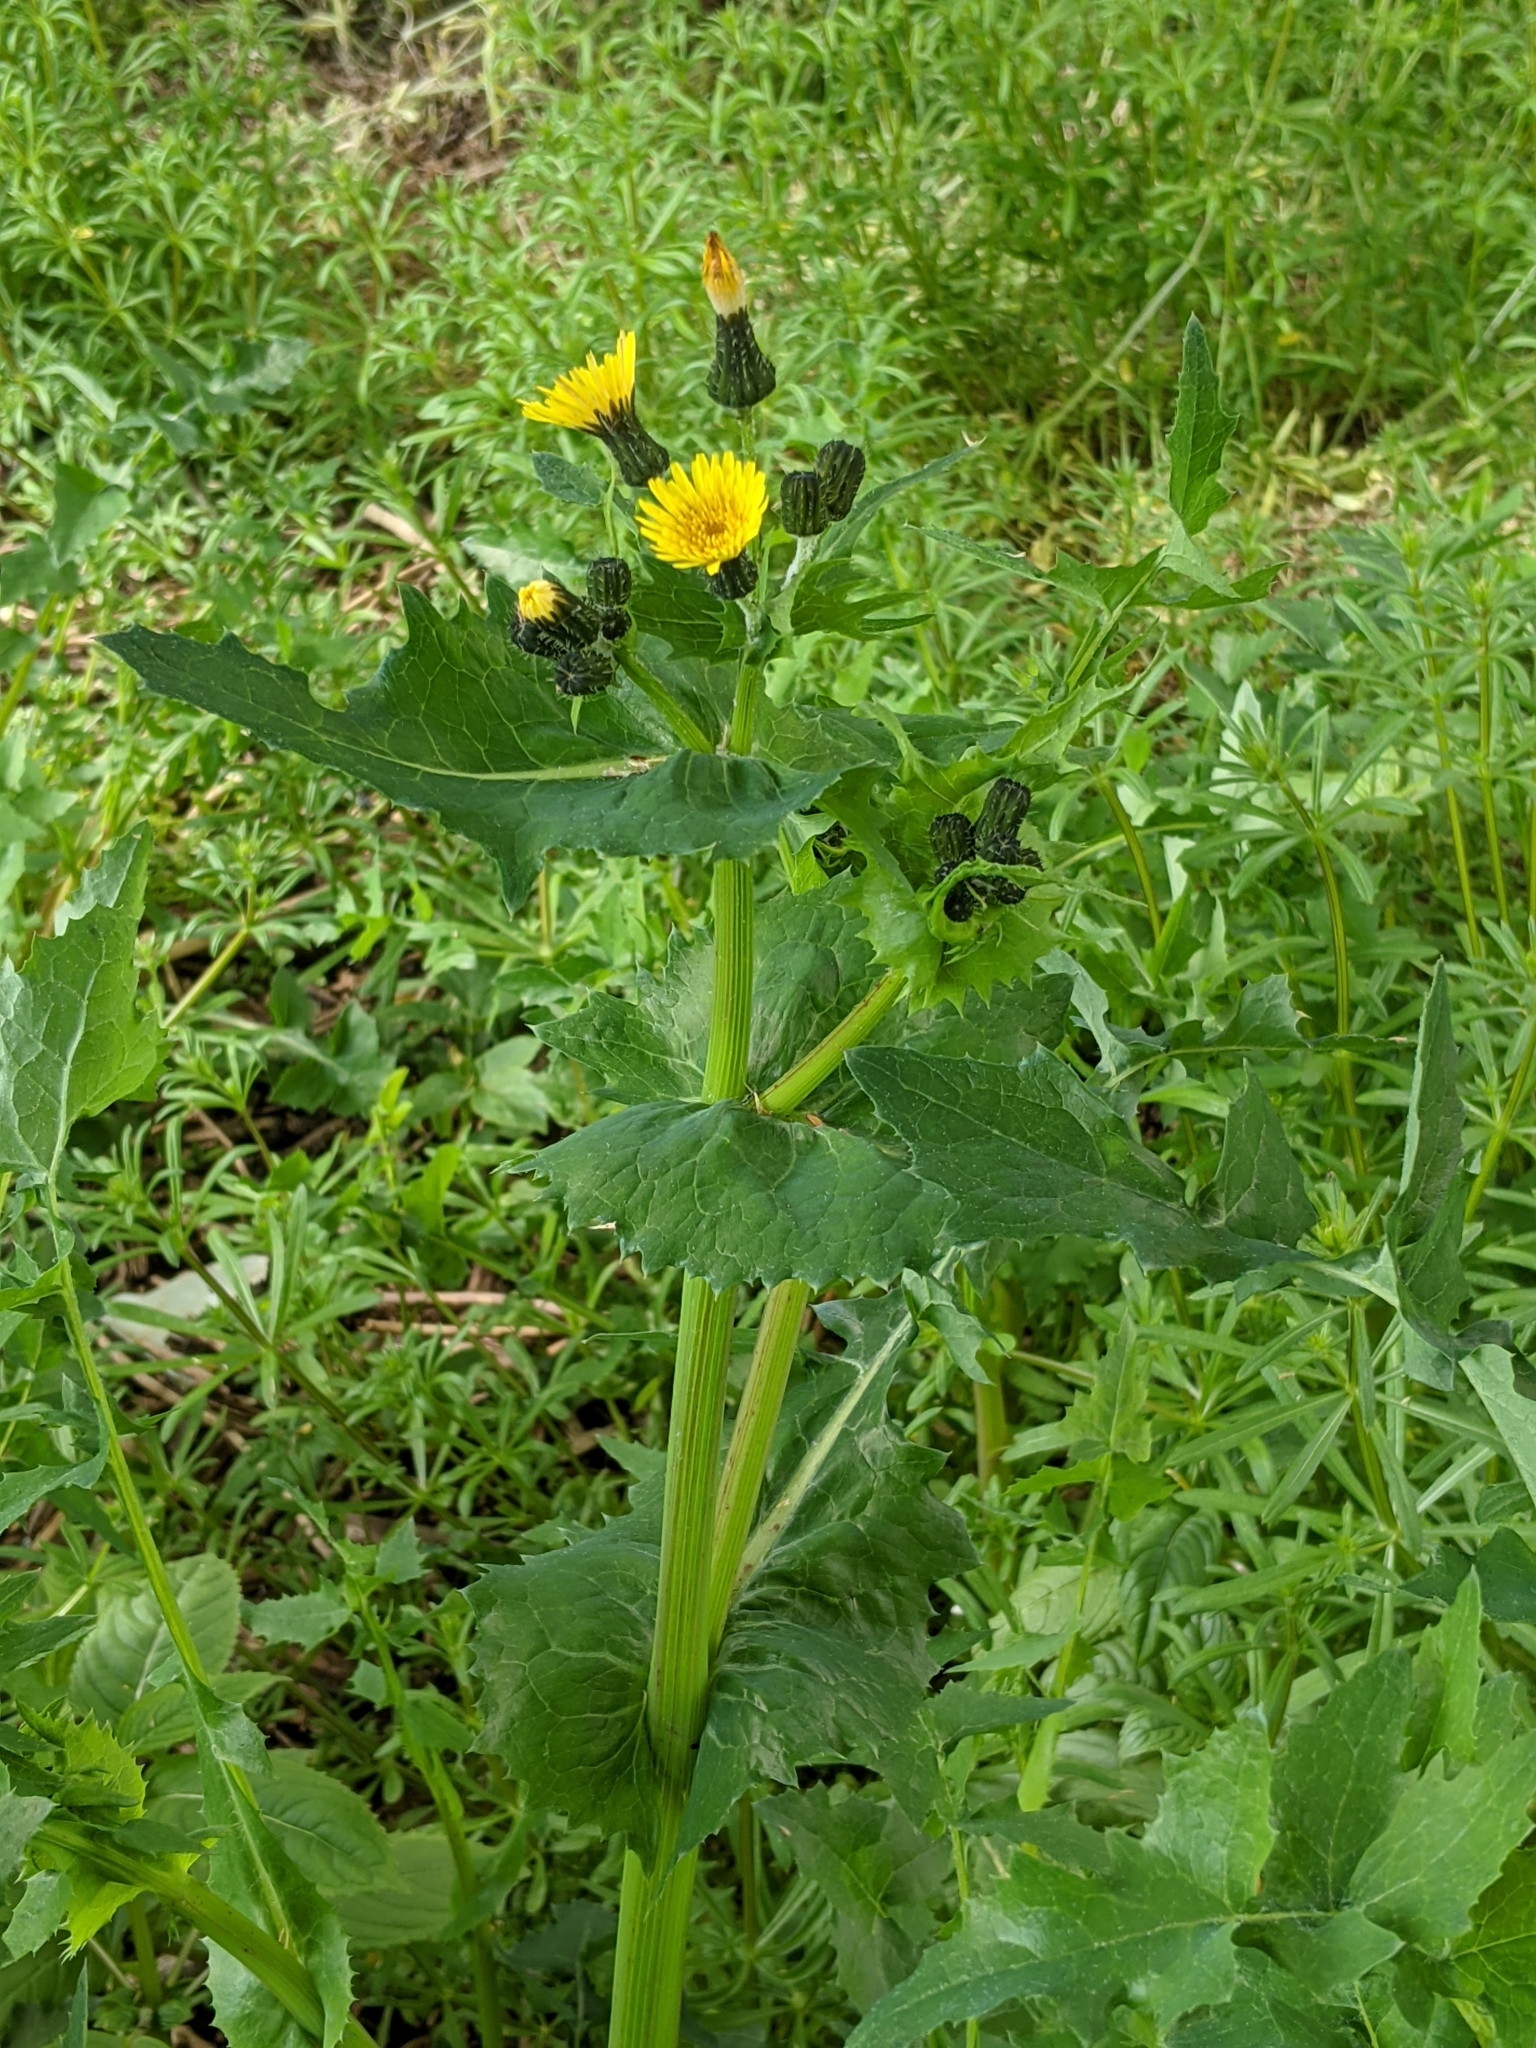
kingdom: Plantae
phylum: Tracheophyta
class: Magnoliopsida
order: Asterales
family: Asteraceae
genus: Sonchus
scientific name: Sonchus oleraceus
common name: Common sowthistle
